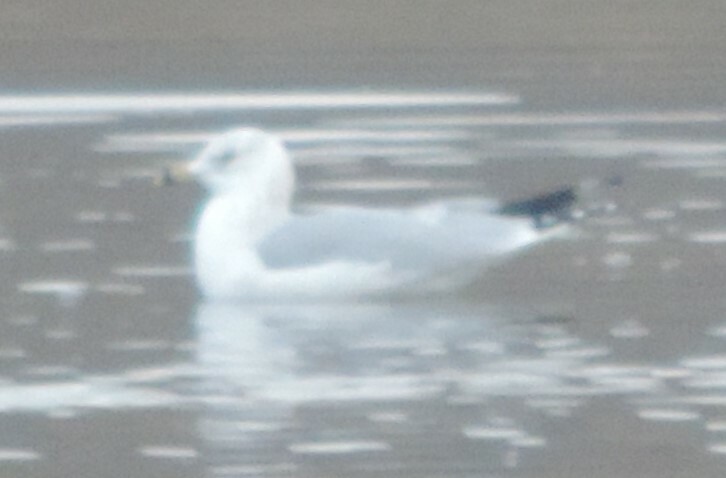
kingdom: Animalia
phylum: Chordata
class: Aves
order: Charadriiformes
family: Laridae
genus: Larus
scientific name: Larus delawarensis
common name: Ring-billed gull
